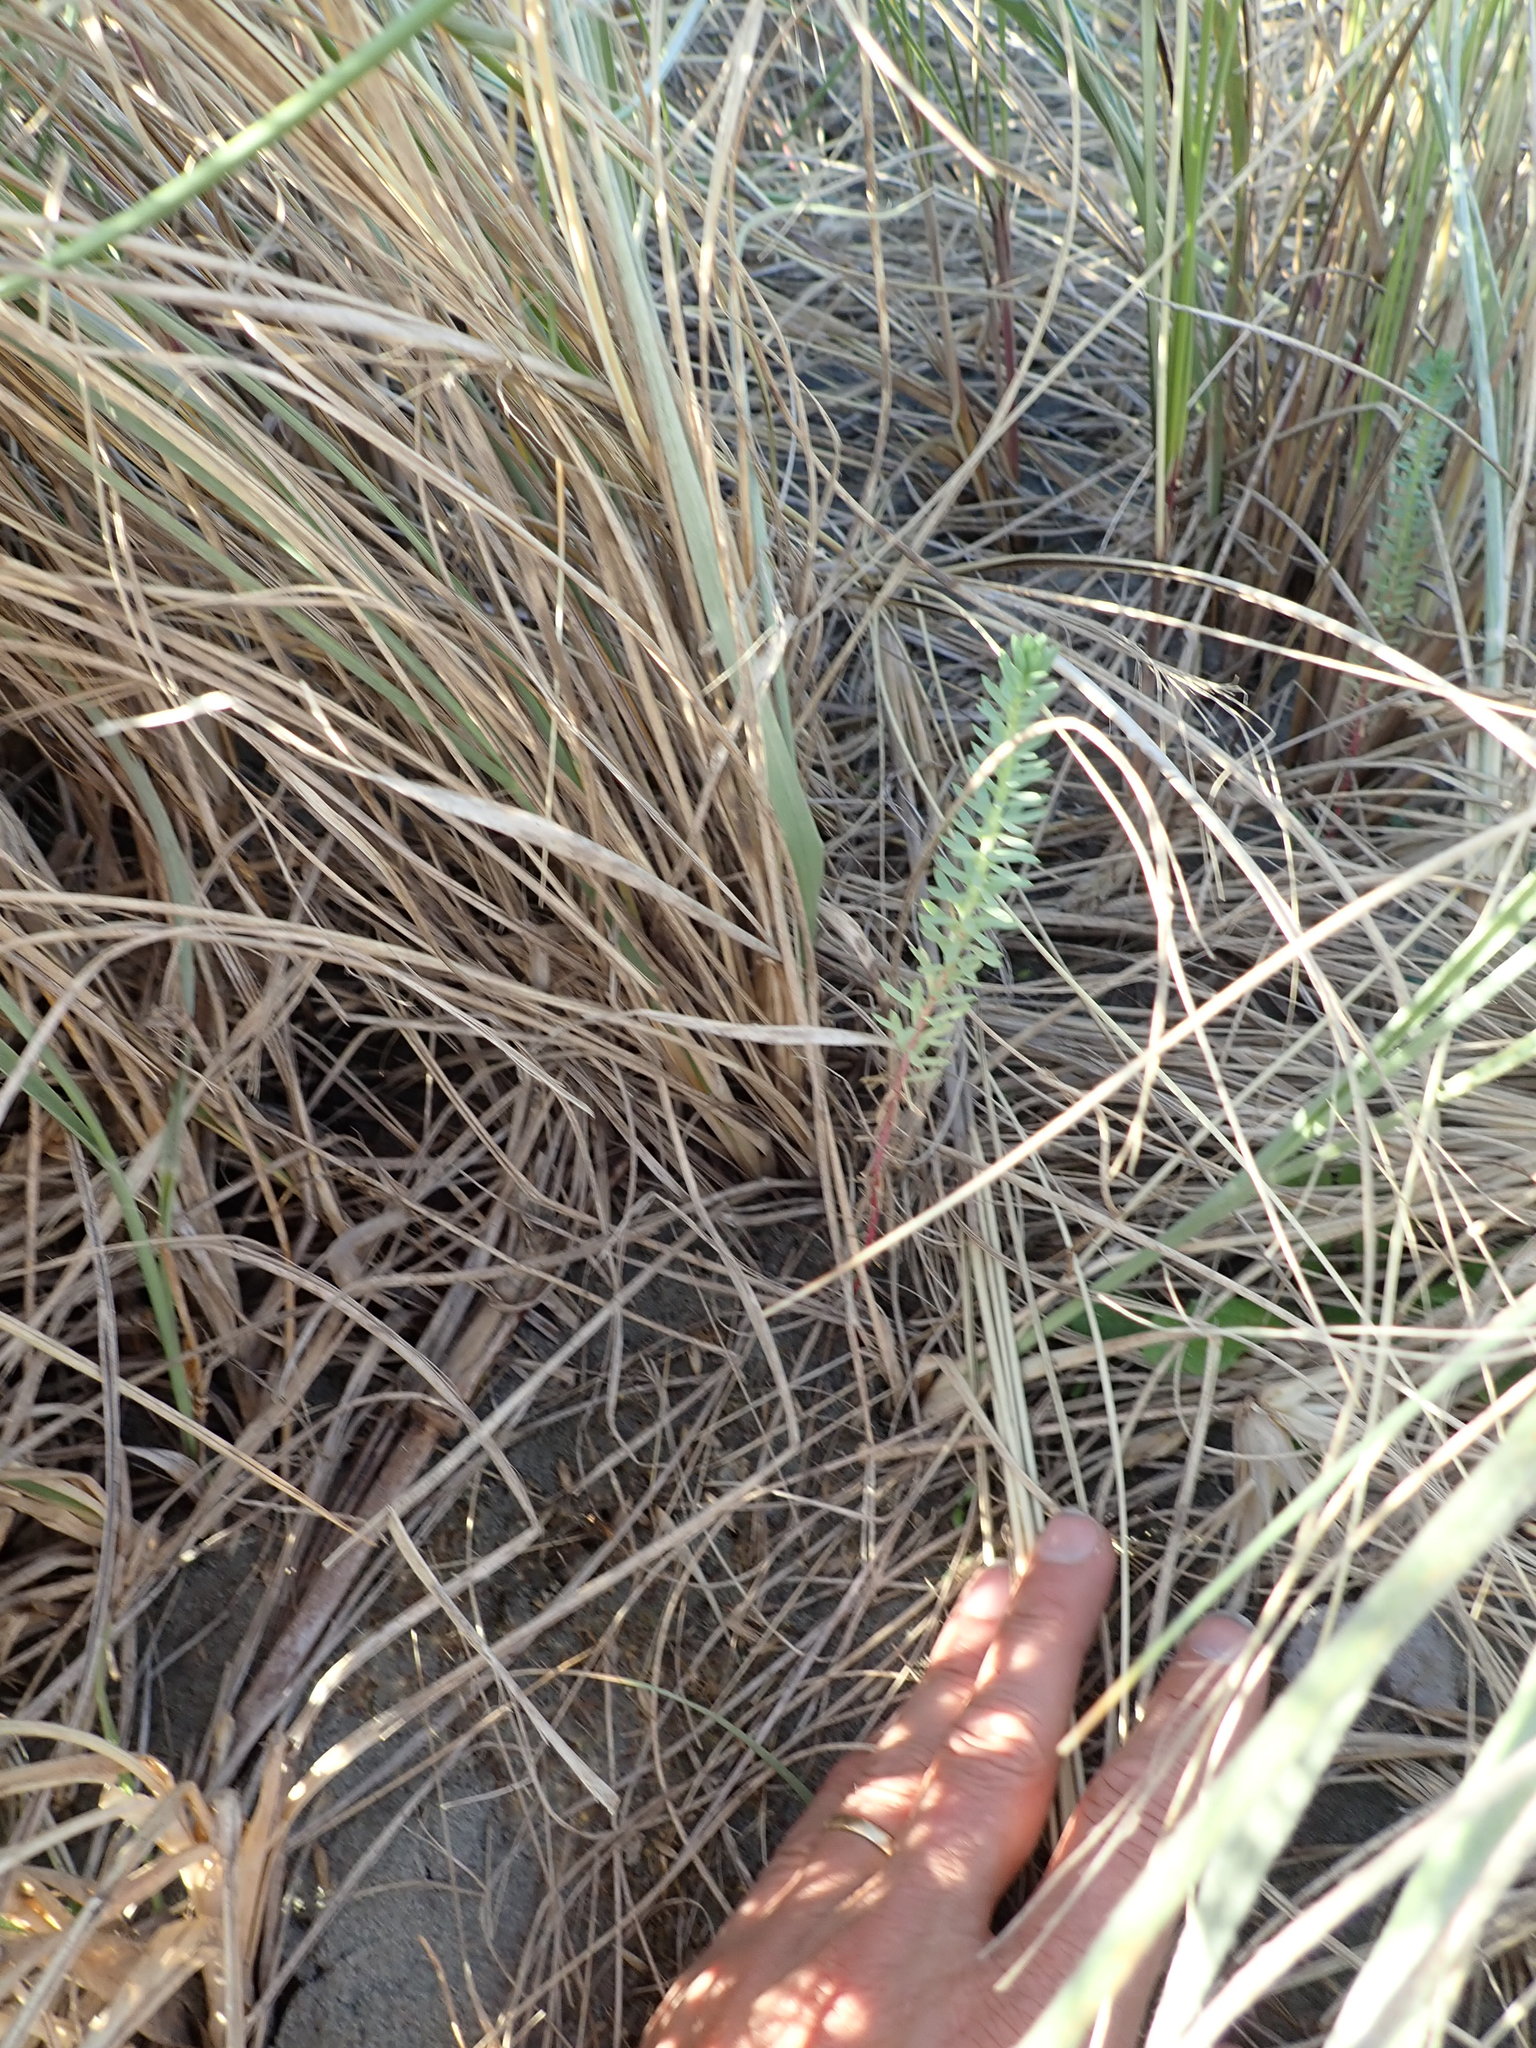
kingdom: Plantae
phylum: Tracheophyta
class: Magnoliopsida
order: Malpighiales
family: Euphorbiaceae
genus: Euphorbia
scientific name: Euphorbia paralias
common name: Sea spurge
